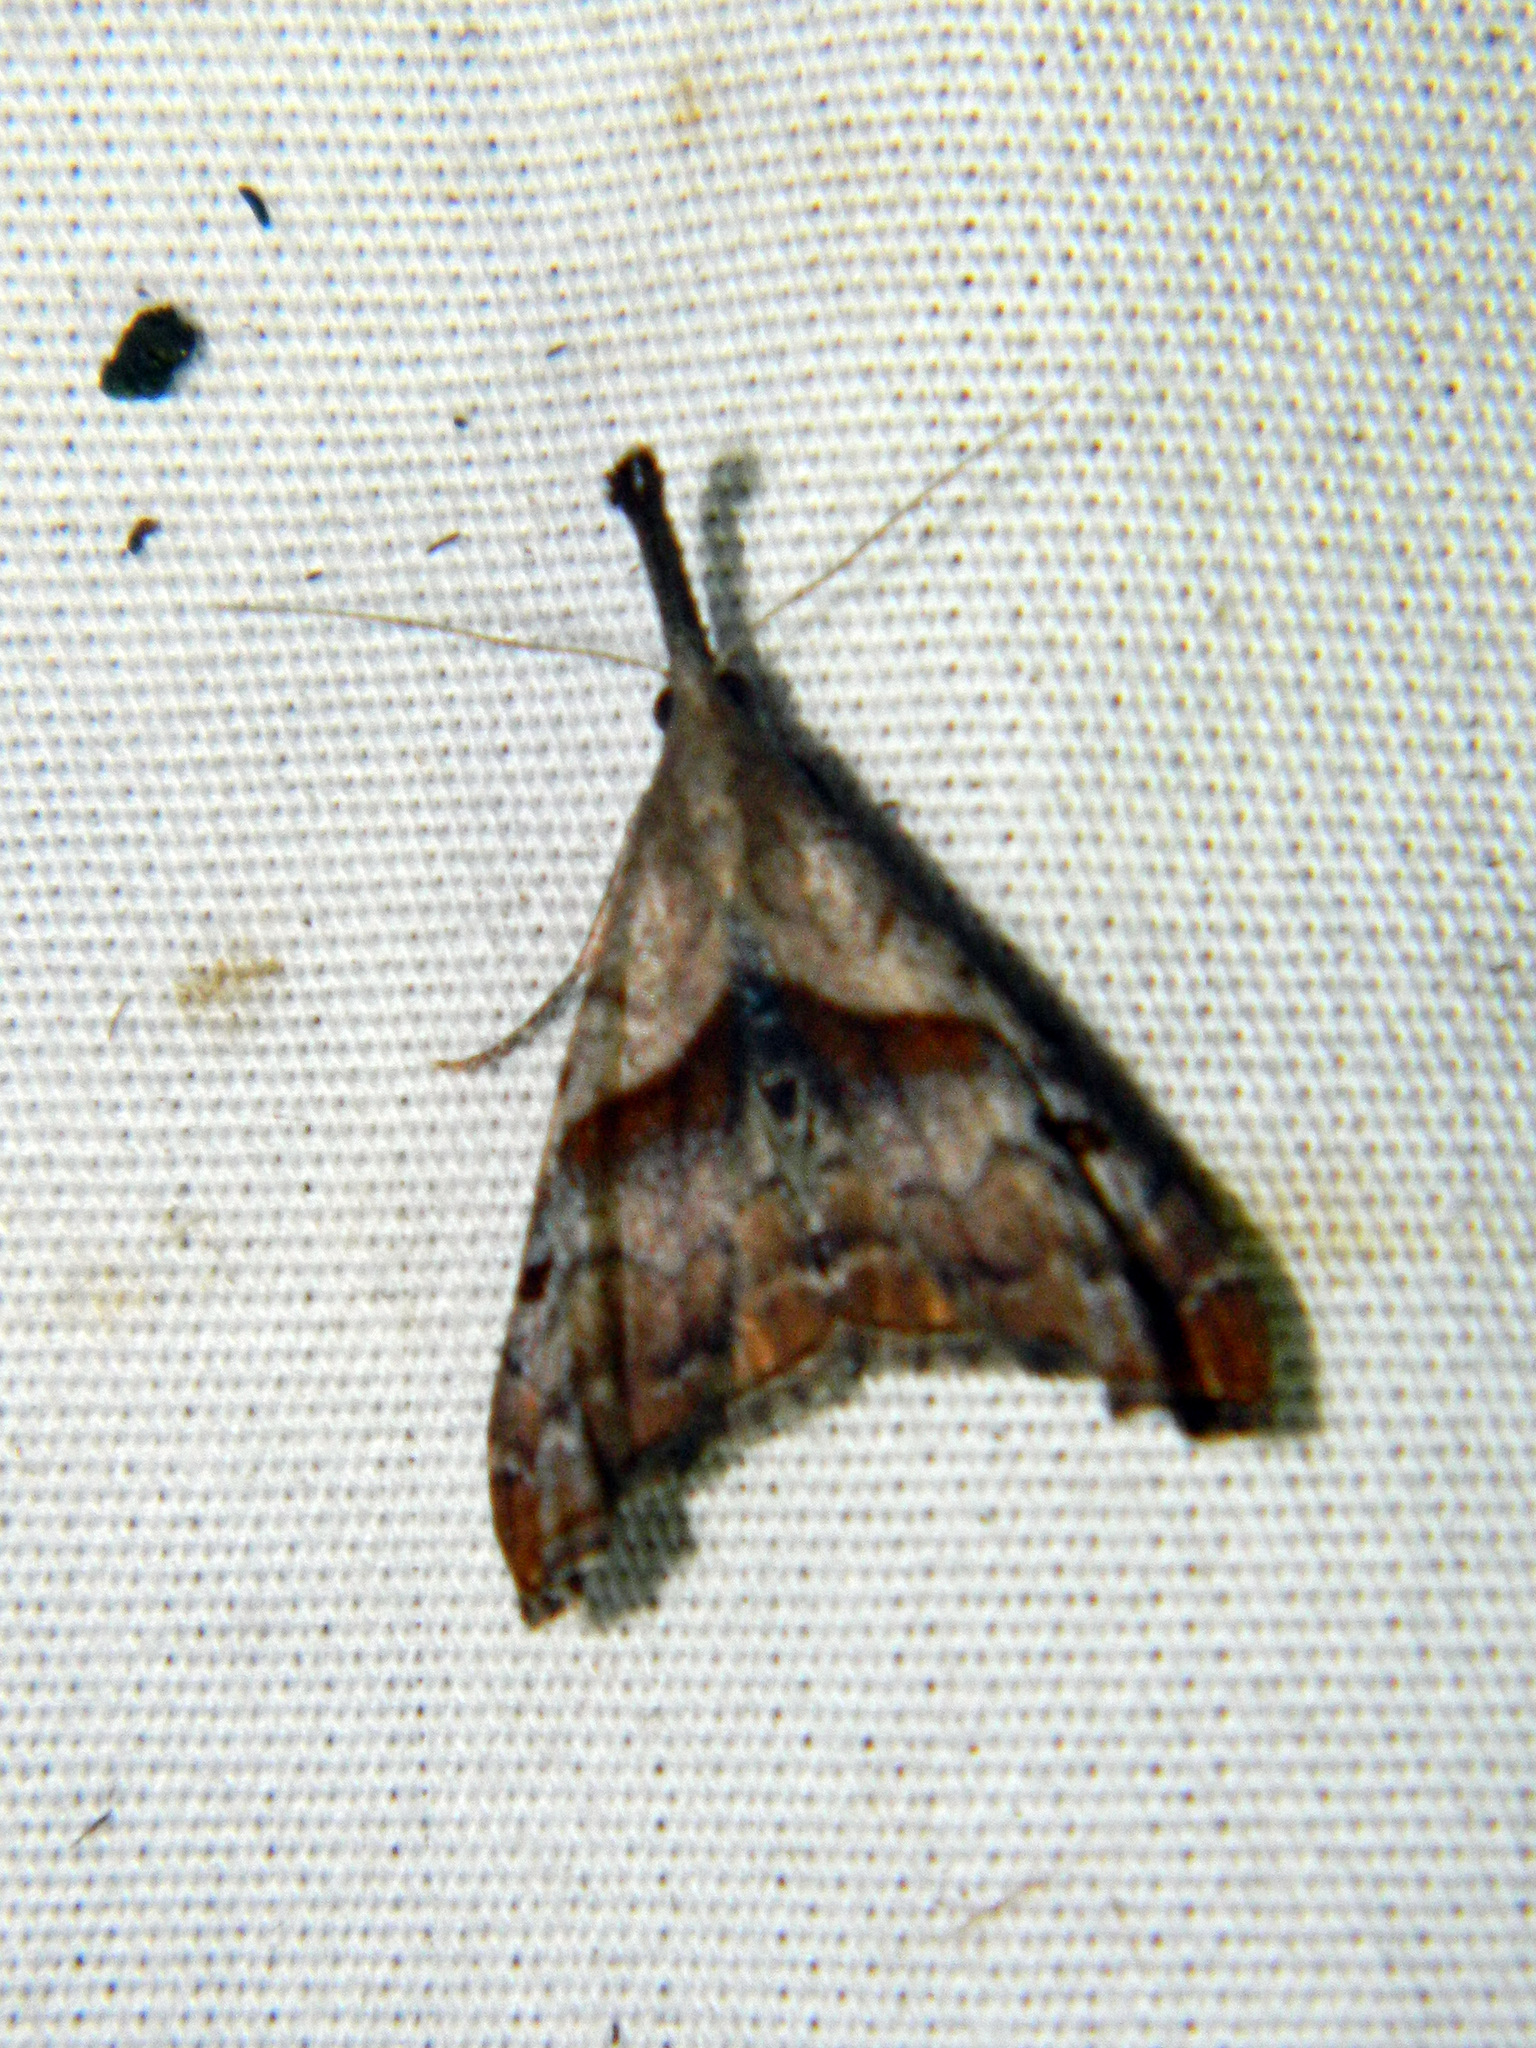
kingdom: Animalia
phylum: Arthropoda
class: Insecta
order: Lepidoptera
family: Erebidae
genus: Palthis
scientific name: Palthis angulalis
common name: Dark-spotted palthis moth
